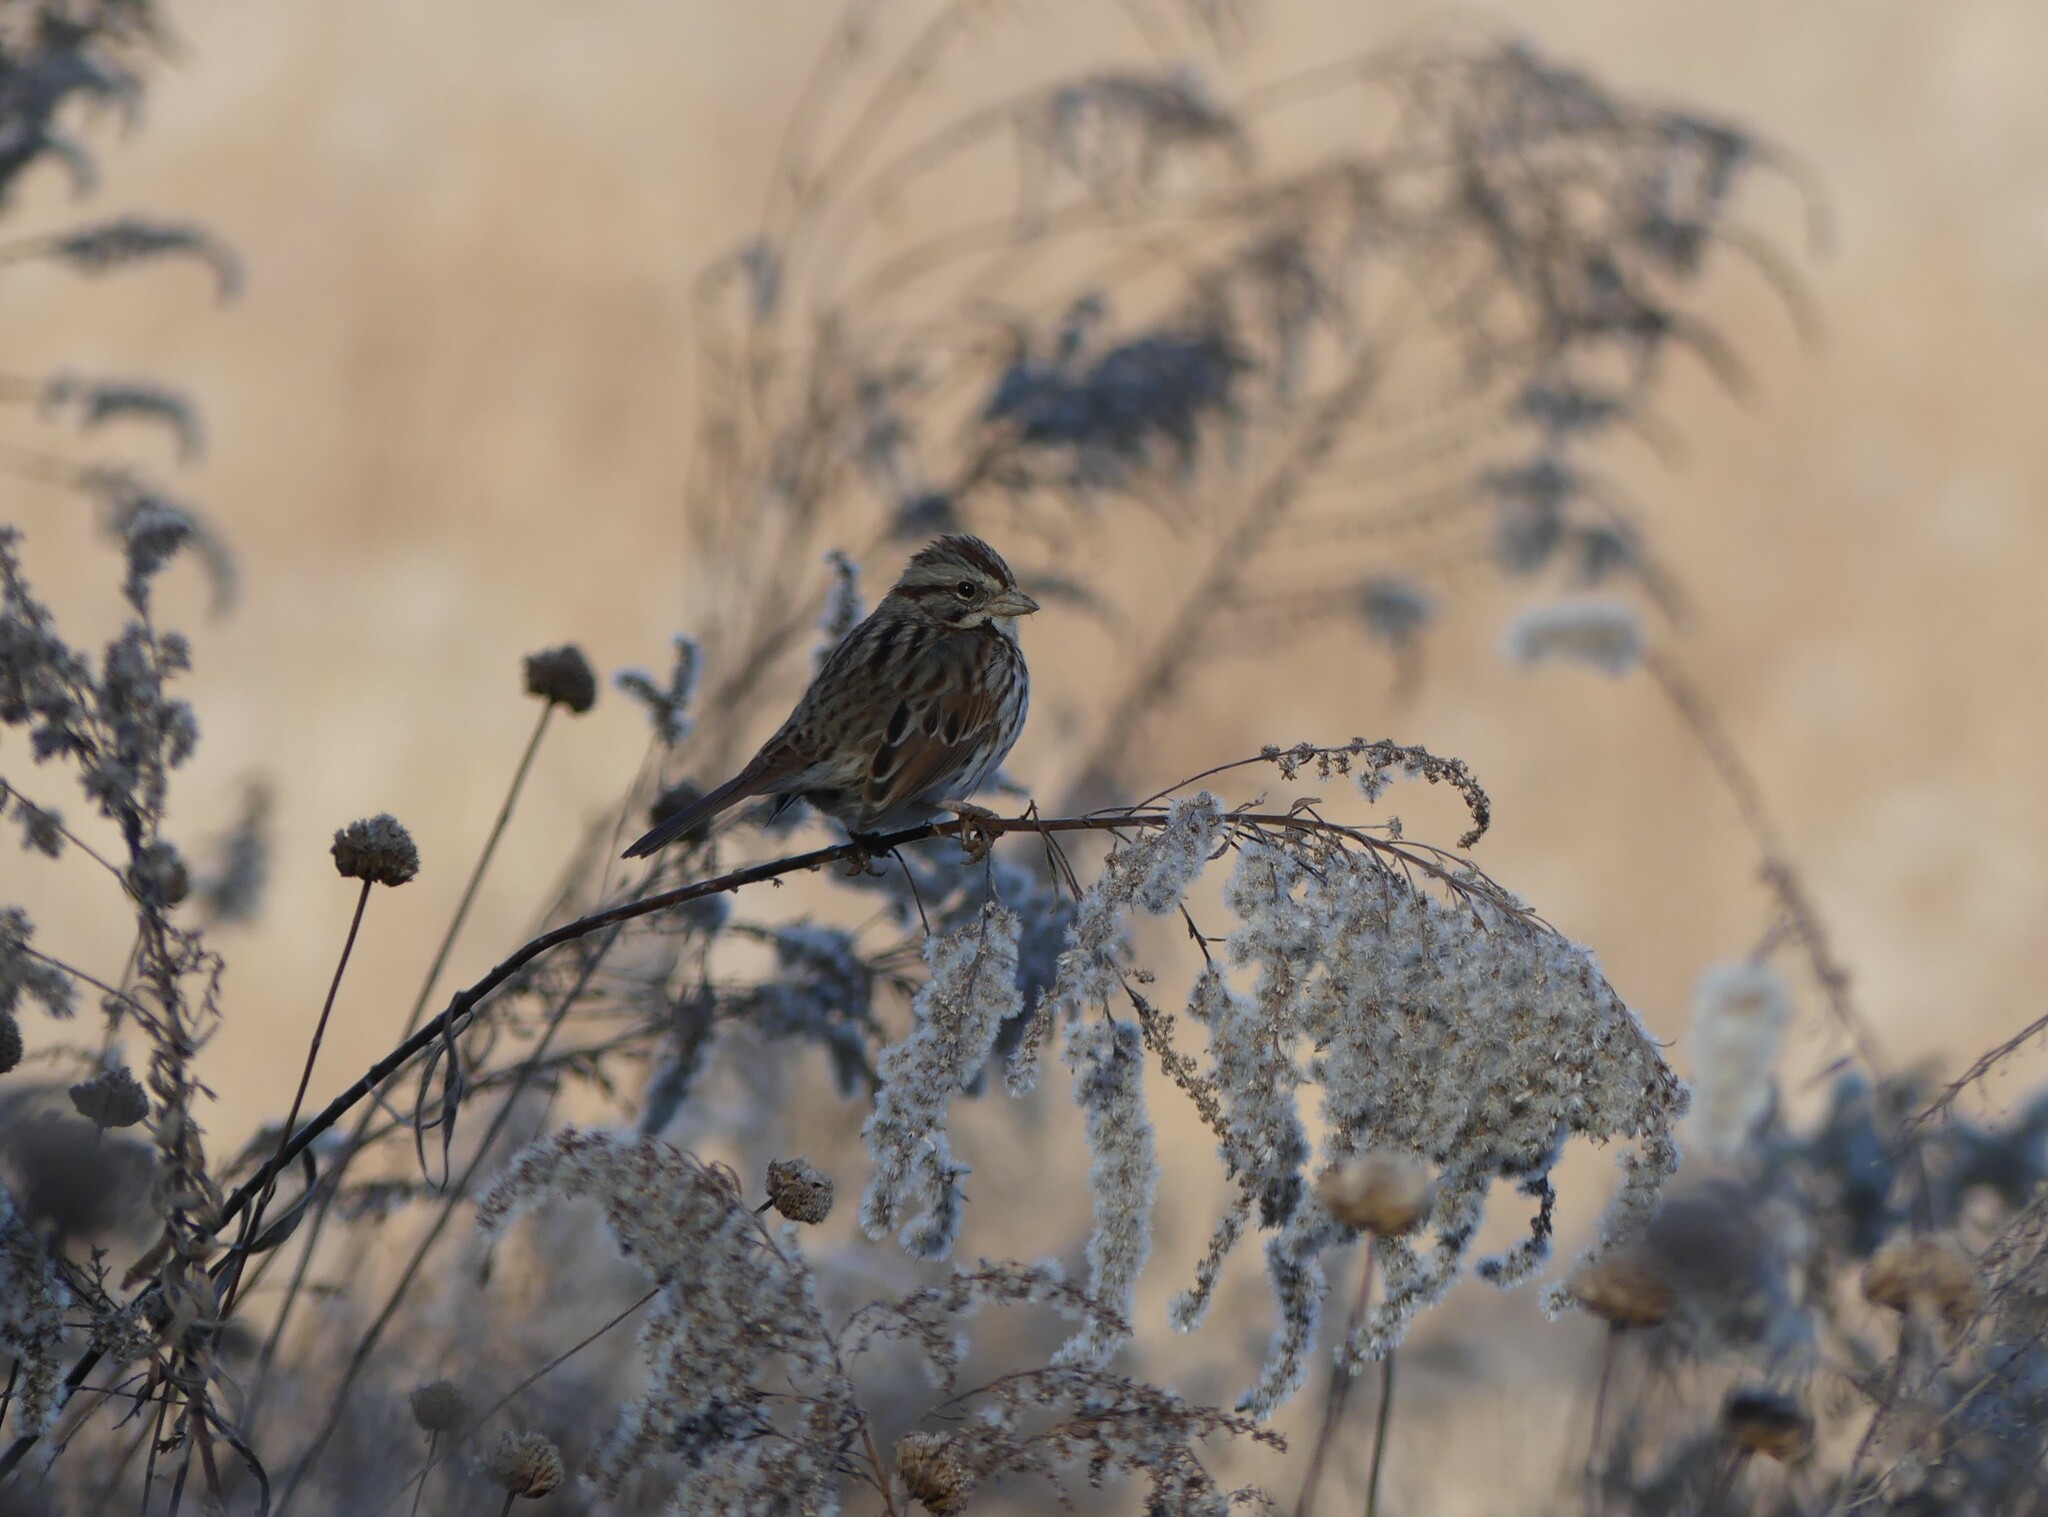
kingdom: Animalia
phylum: Chordata
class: Aves
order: Passeriformes
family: Passerellidae
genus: Melospiza
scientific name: Melospiza melodia
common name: Song sparrow
